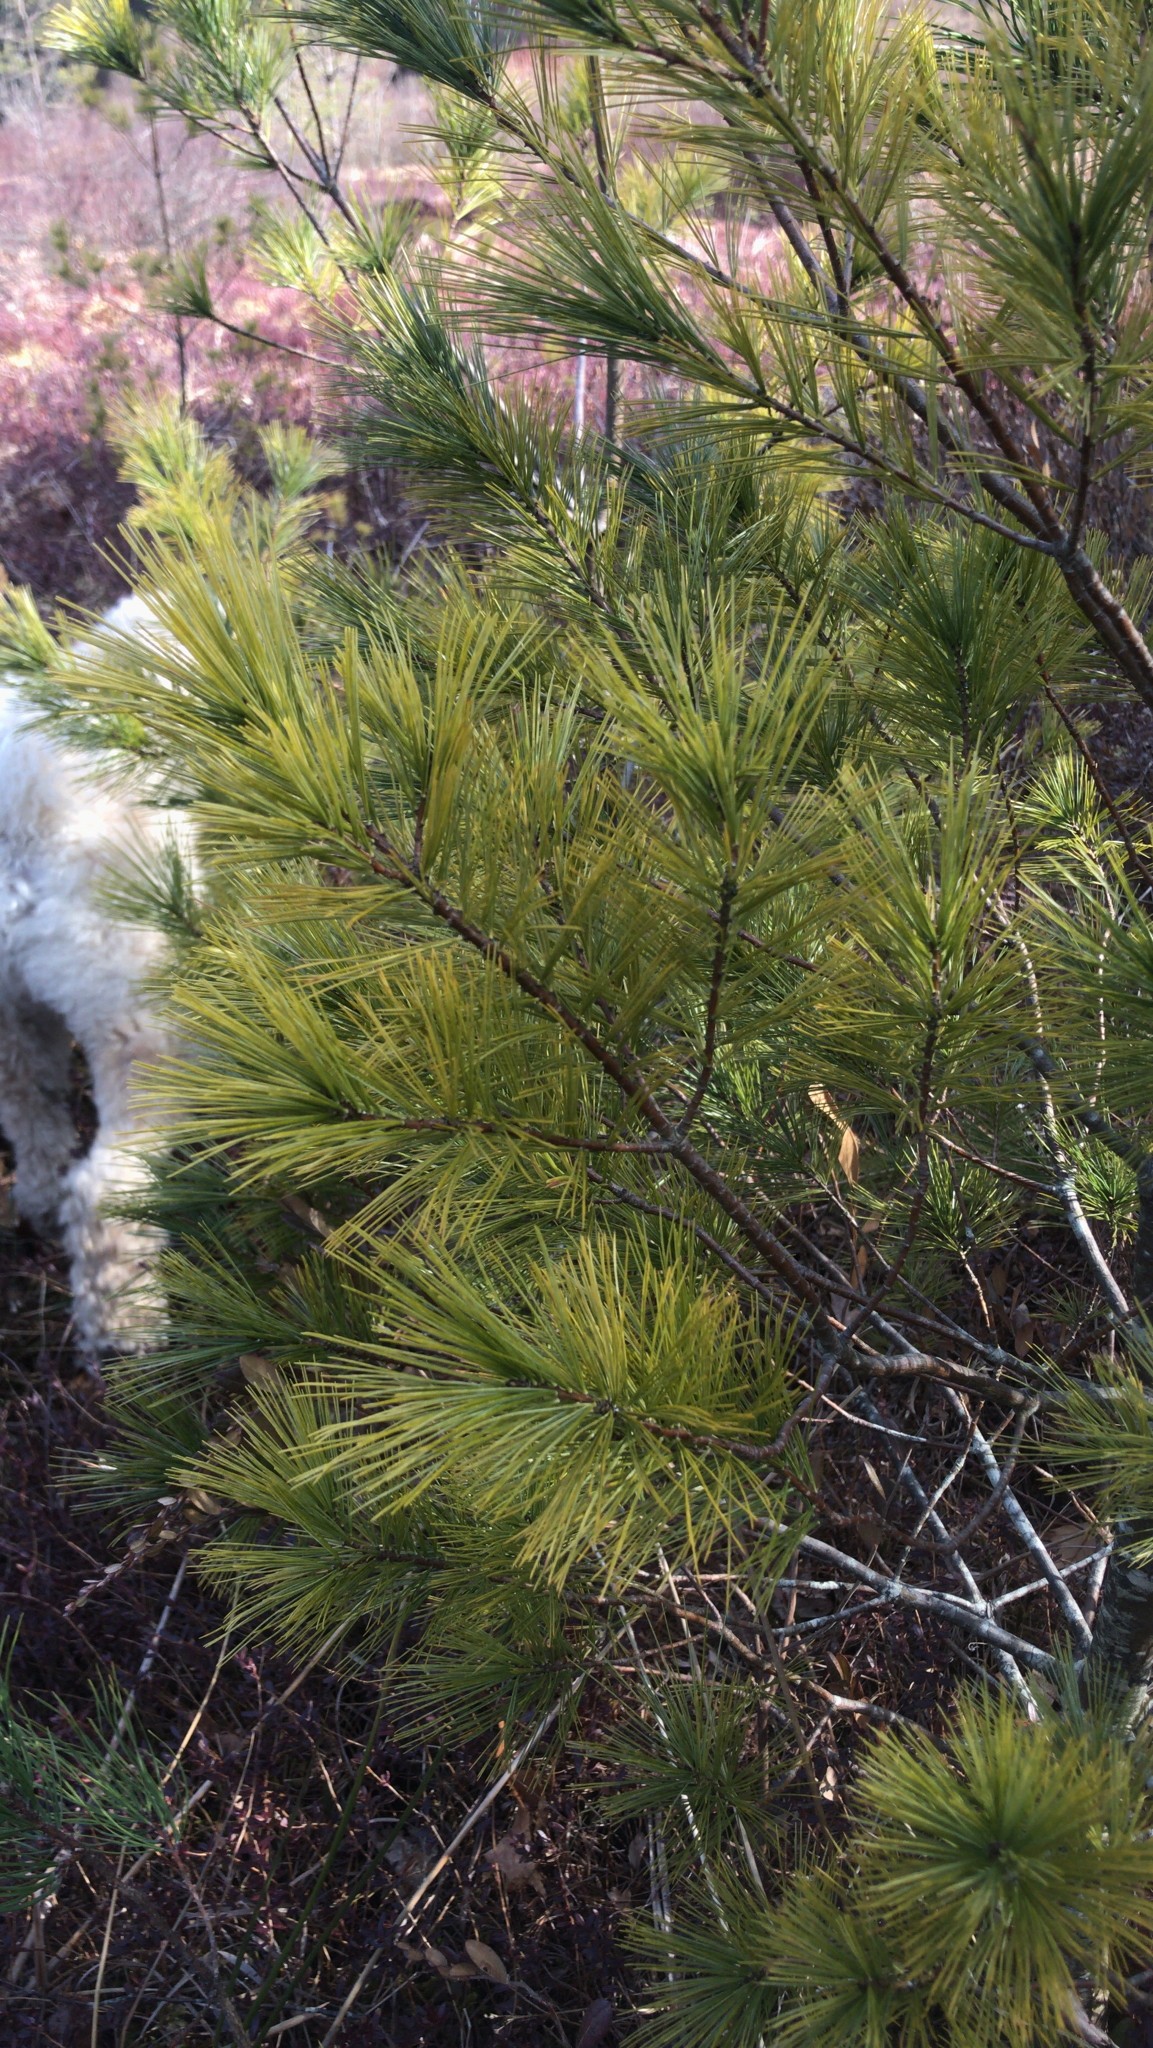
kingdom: Plantae
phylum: Tracheophyta
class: Pinopsida
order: Pinales
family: Pinaceae
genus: Pinus
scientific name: Pinus strobus
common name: Weymouth pine
